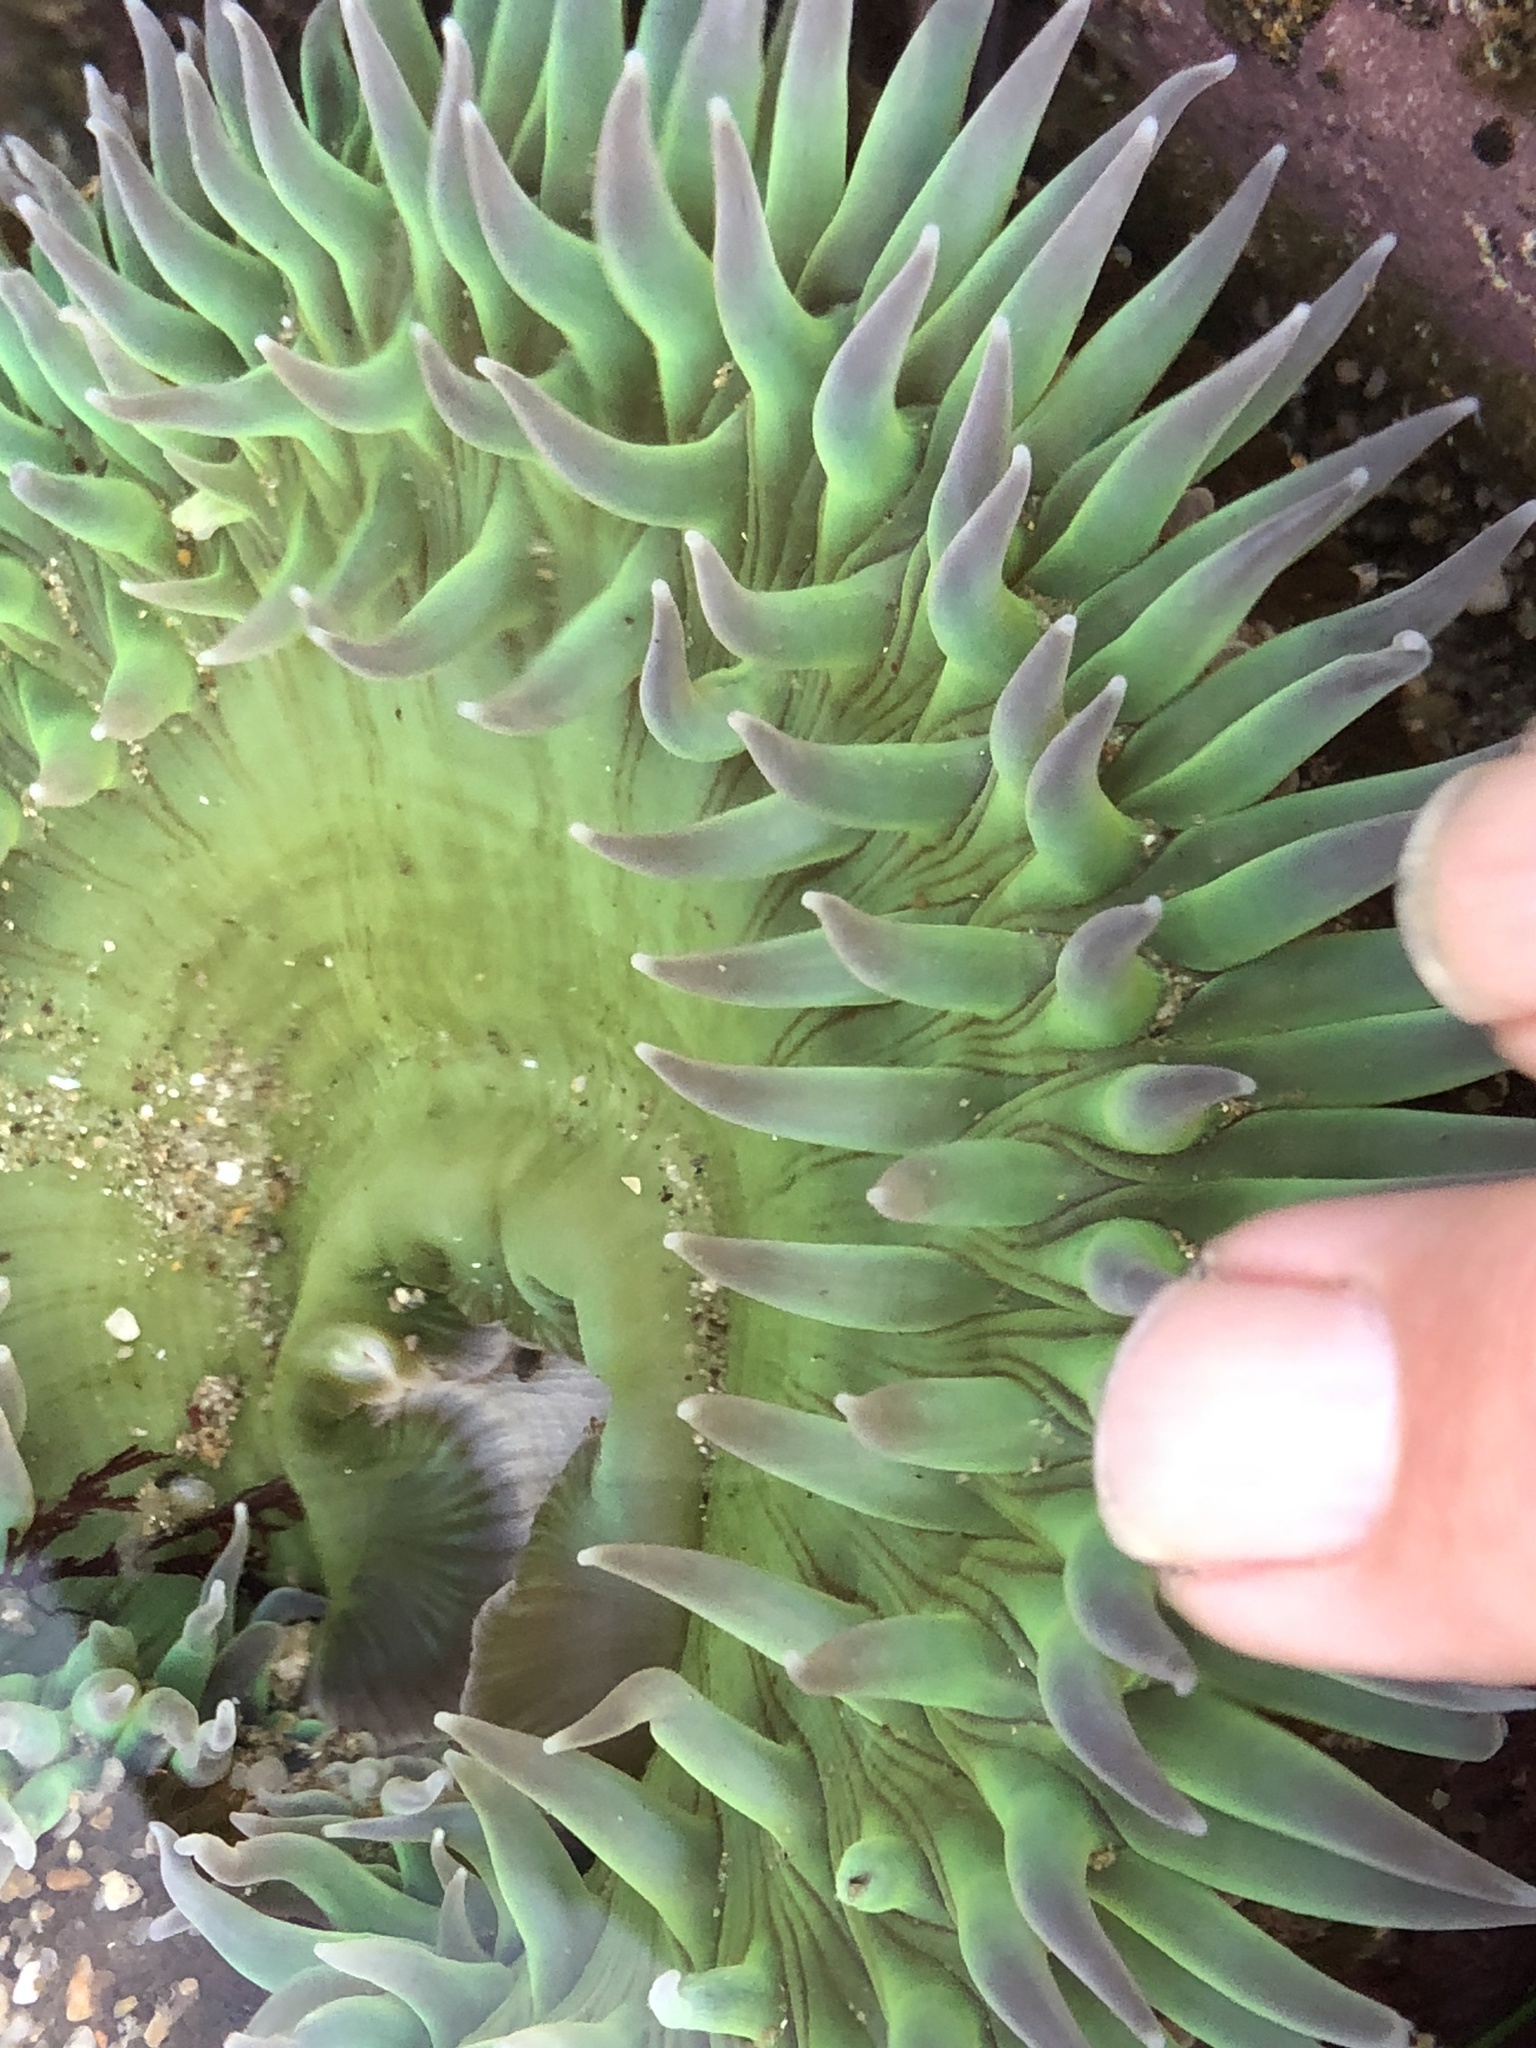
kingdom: Animalia
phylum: Cnidaria
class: Anthozoa
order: Actiniaria
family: Actiniidae
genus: Anthopleura
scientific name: Anthopleura xanthogrammica
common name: Giant green anemone
